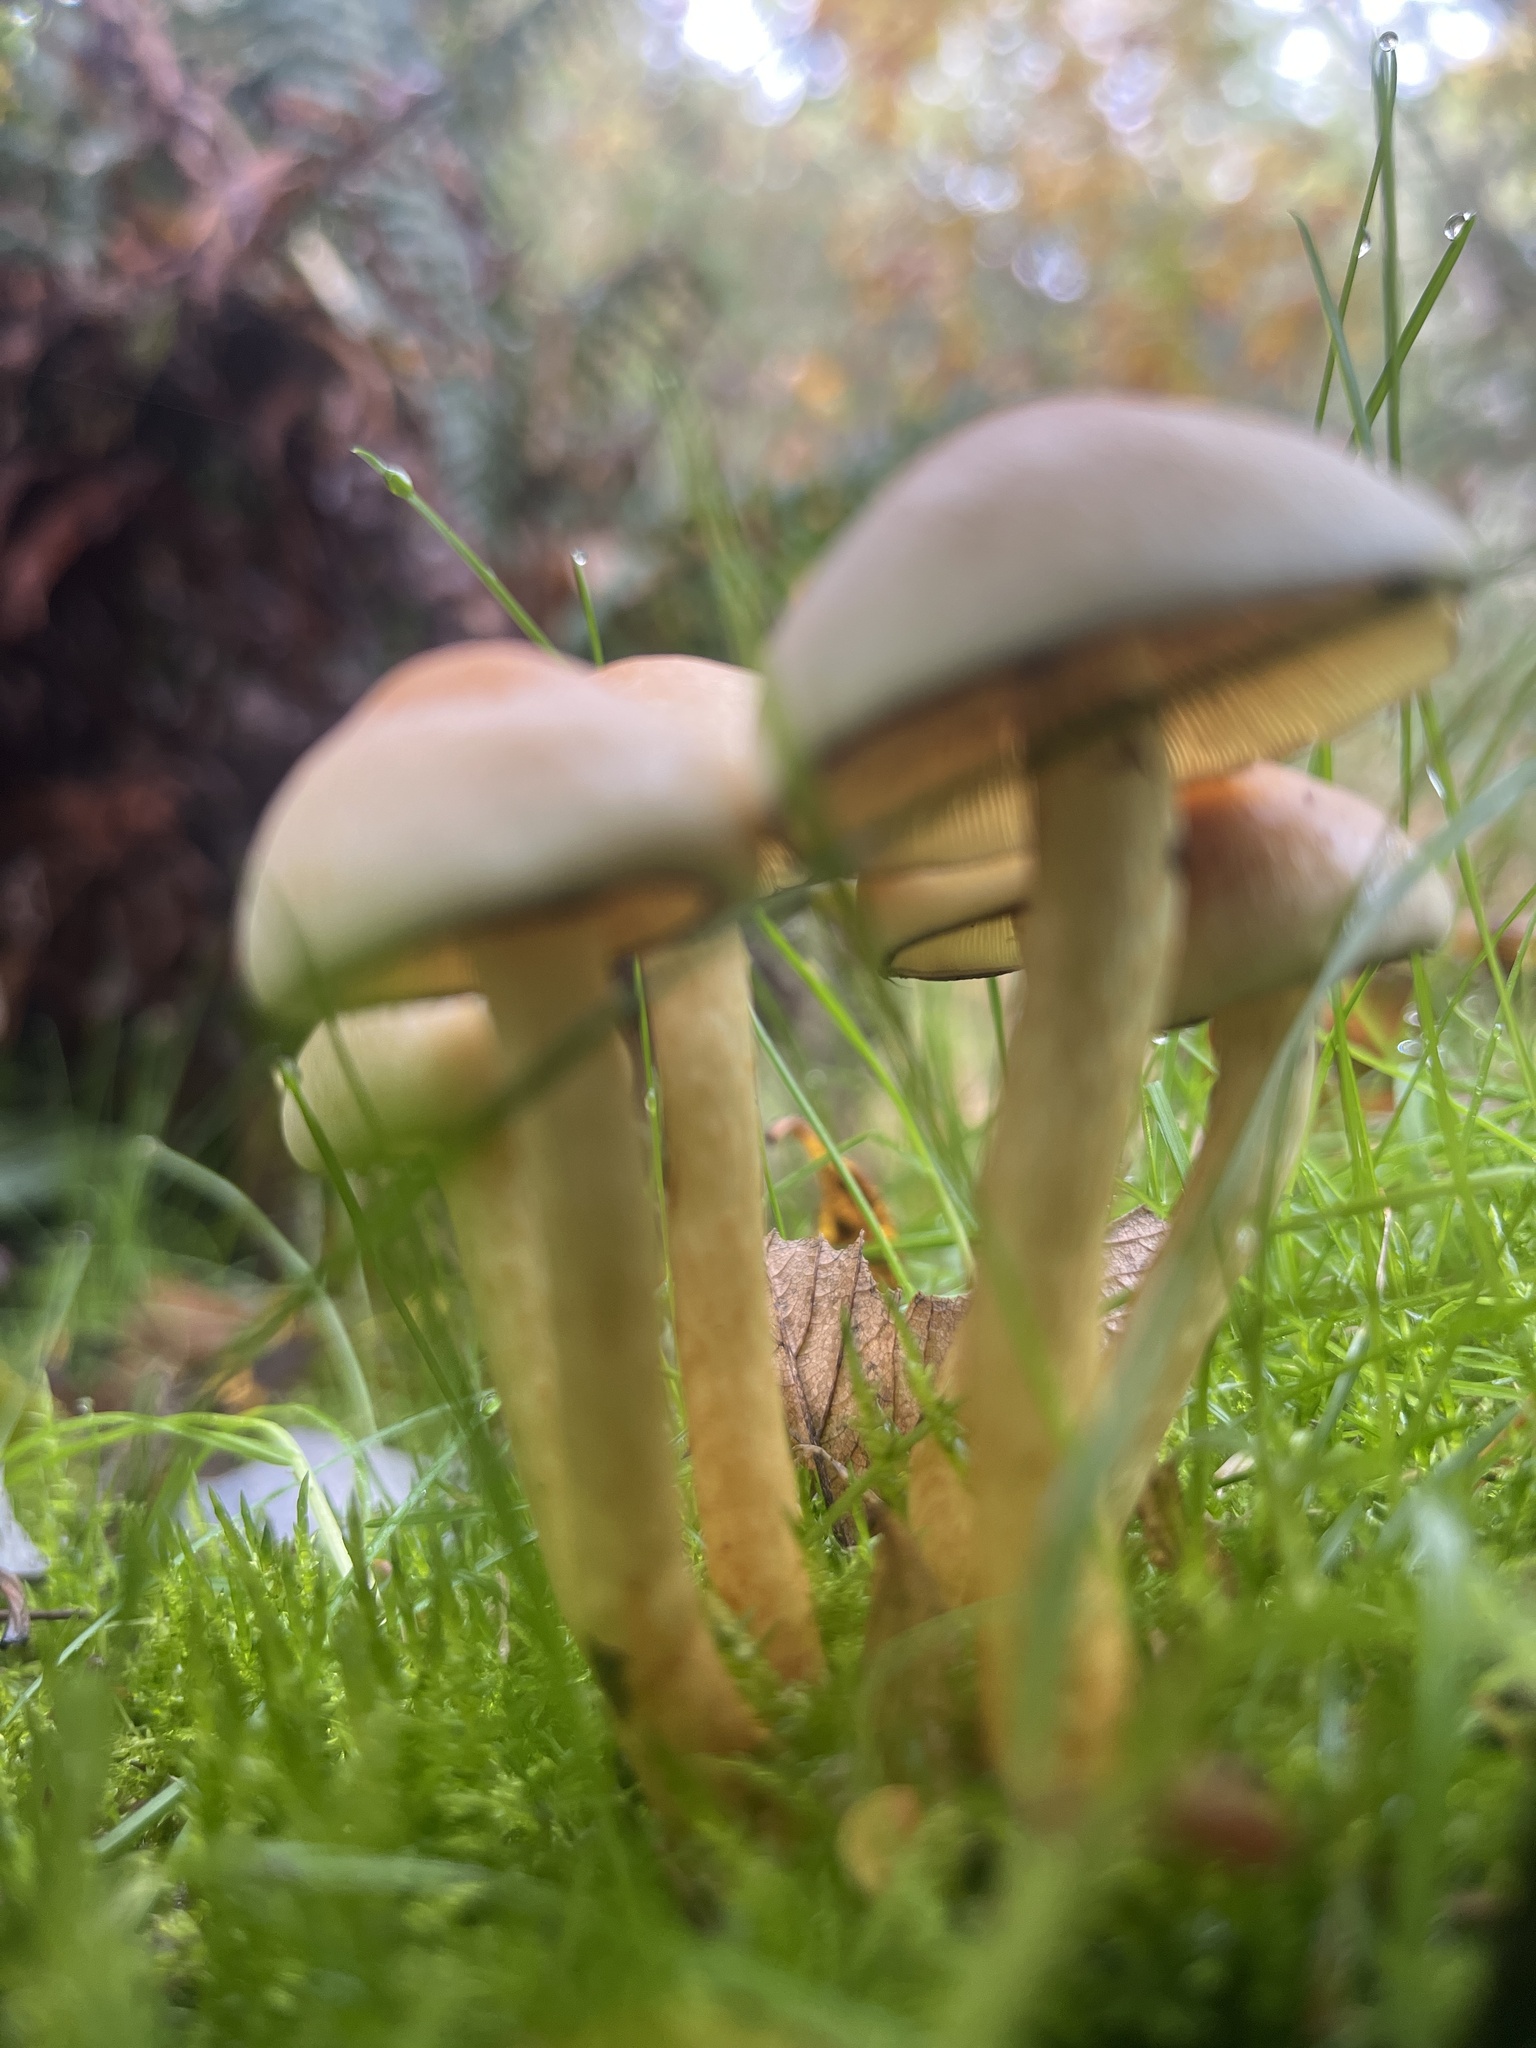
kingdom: Fungi
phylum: Basidiomycota
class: Agaricomycetes
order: Agaricales
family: Strophariaceae
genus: Hypholoma
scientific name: Hypholoma fasciculare
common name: Sulphur tuft
